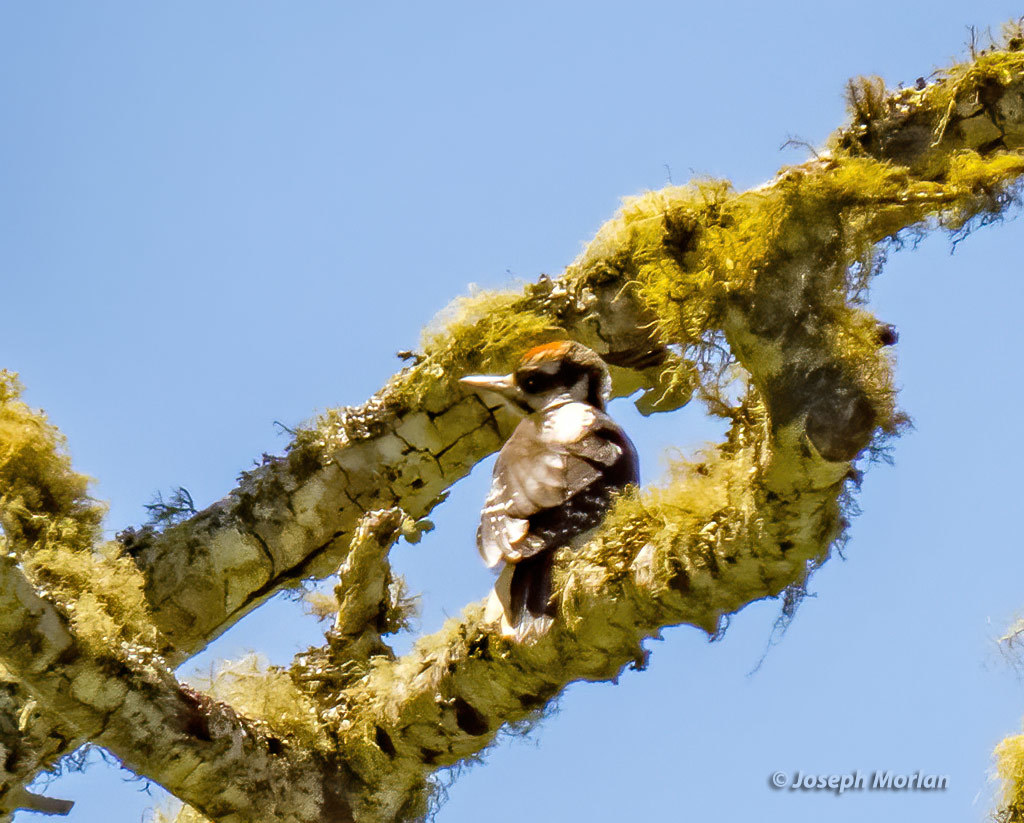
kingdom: Animalia
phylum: Chordata
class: Aves
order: Piciformes
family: Picidae
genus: Leuconotopicus
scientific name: Leuconotopicus villosus
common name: Hairy woodpecker
